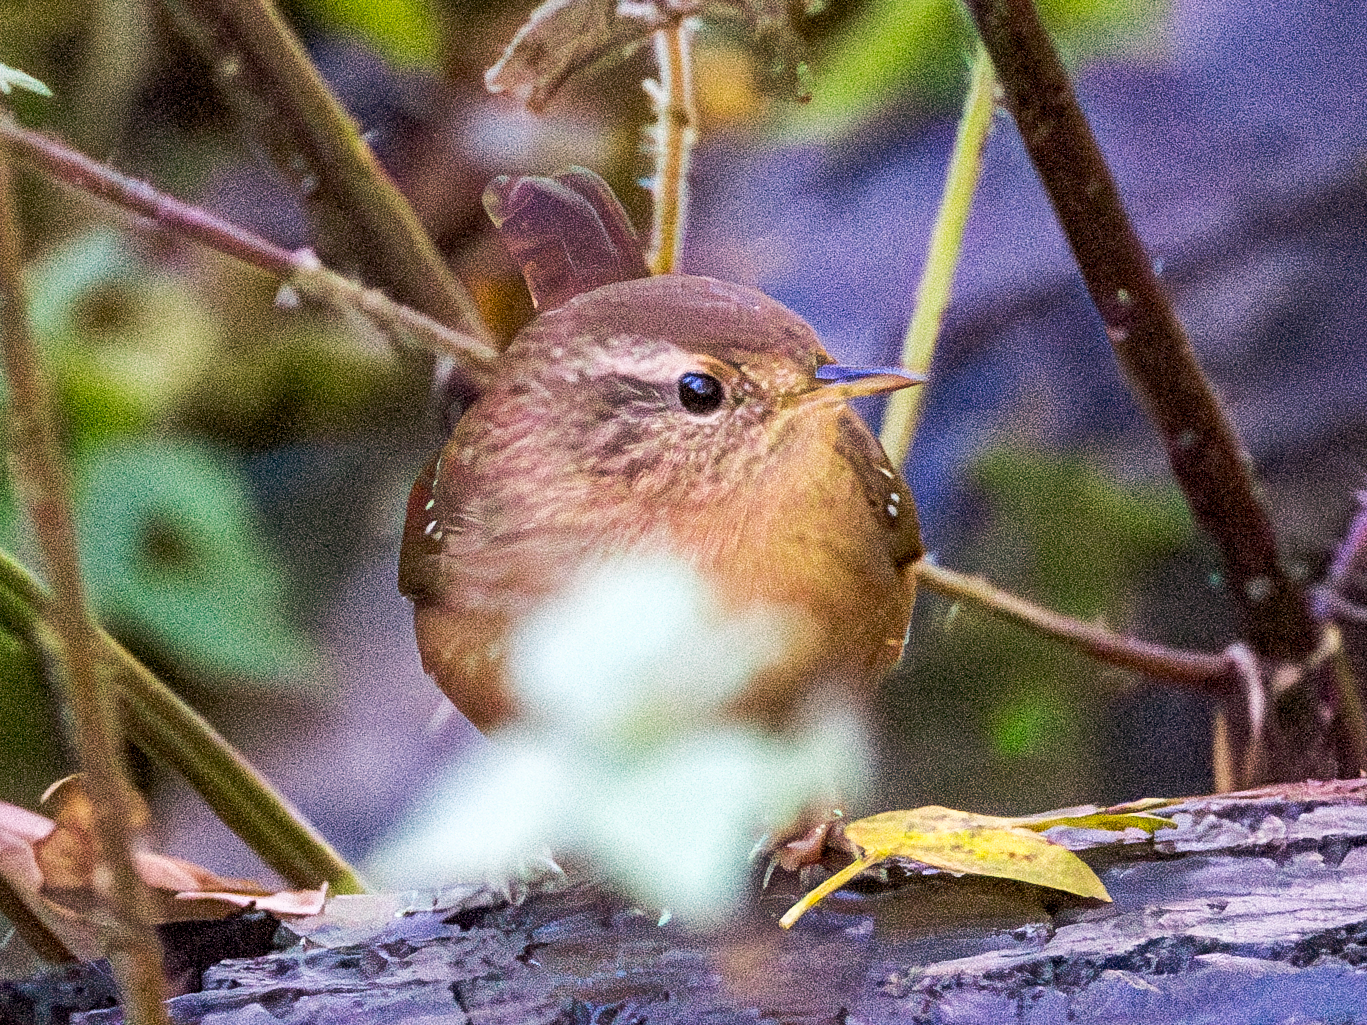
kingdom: Animalia
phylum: Chordata
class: Aves
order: Passeriformes
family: Troglodytidae
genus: Troglodytes
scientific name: Troglodytes troglodytes
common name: Eurasian wren
